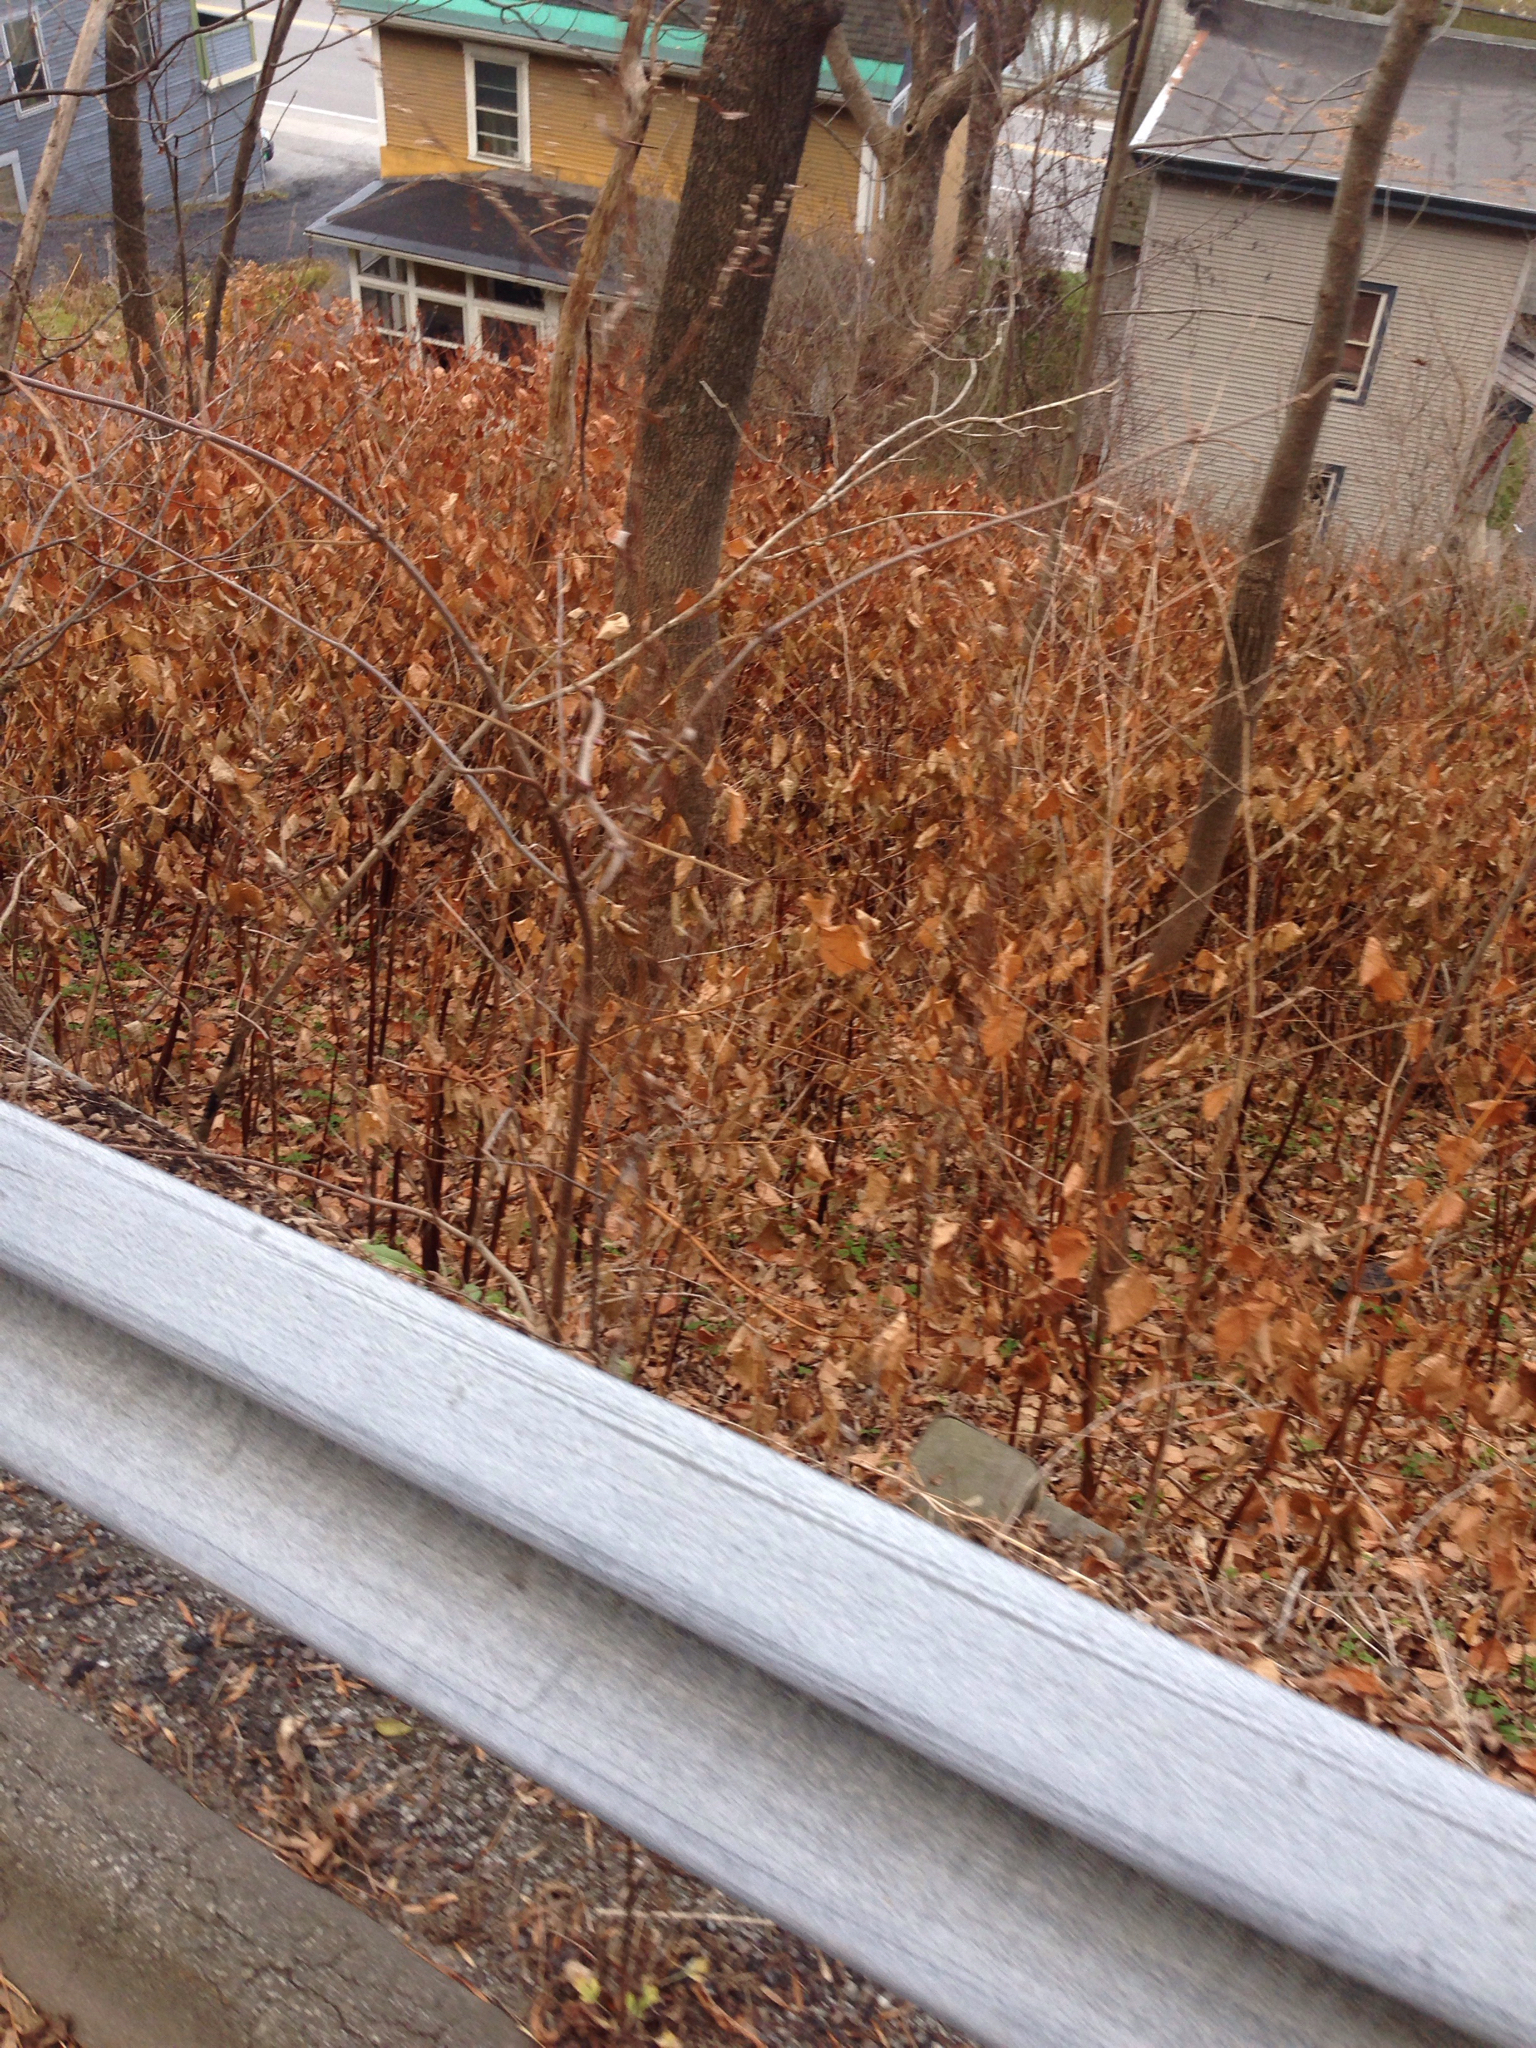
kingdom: Plantae
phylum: Tracheophyta
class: Magnoliopsida
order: Caryophyllales
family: Polygonaceae
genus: Reynoutria
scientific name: Reynoutria japonica
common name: Japanese knotweed
